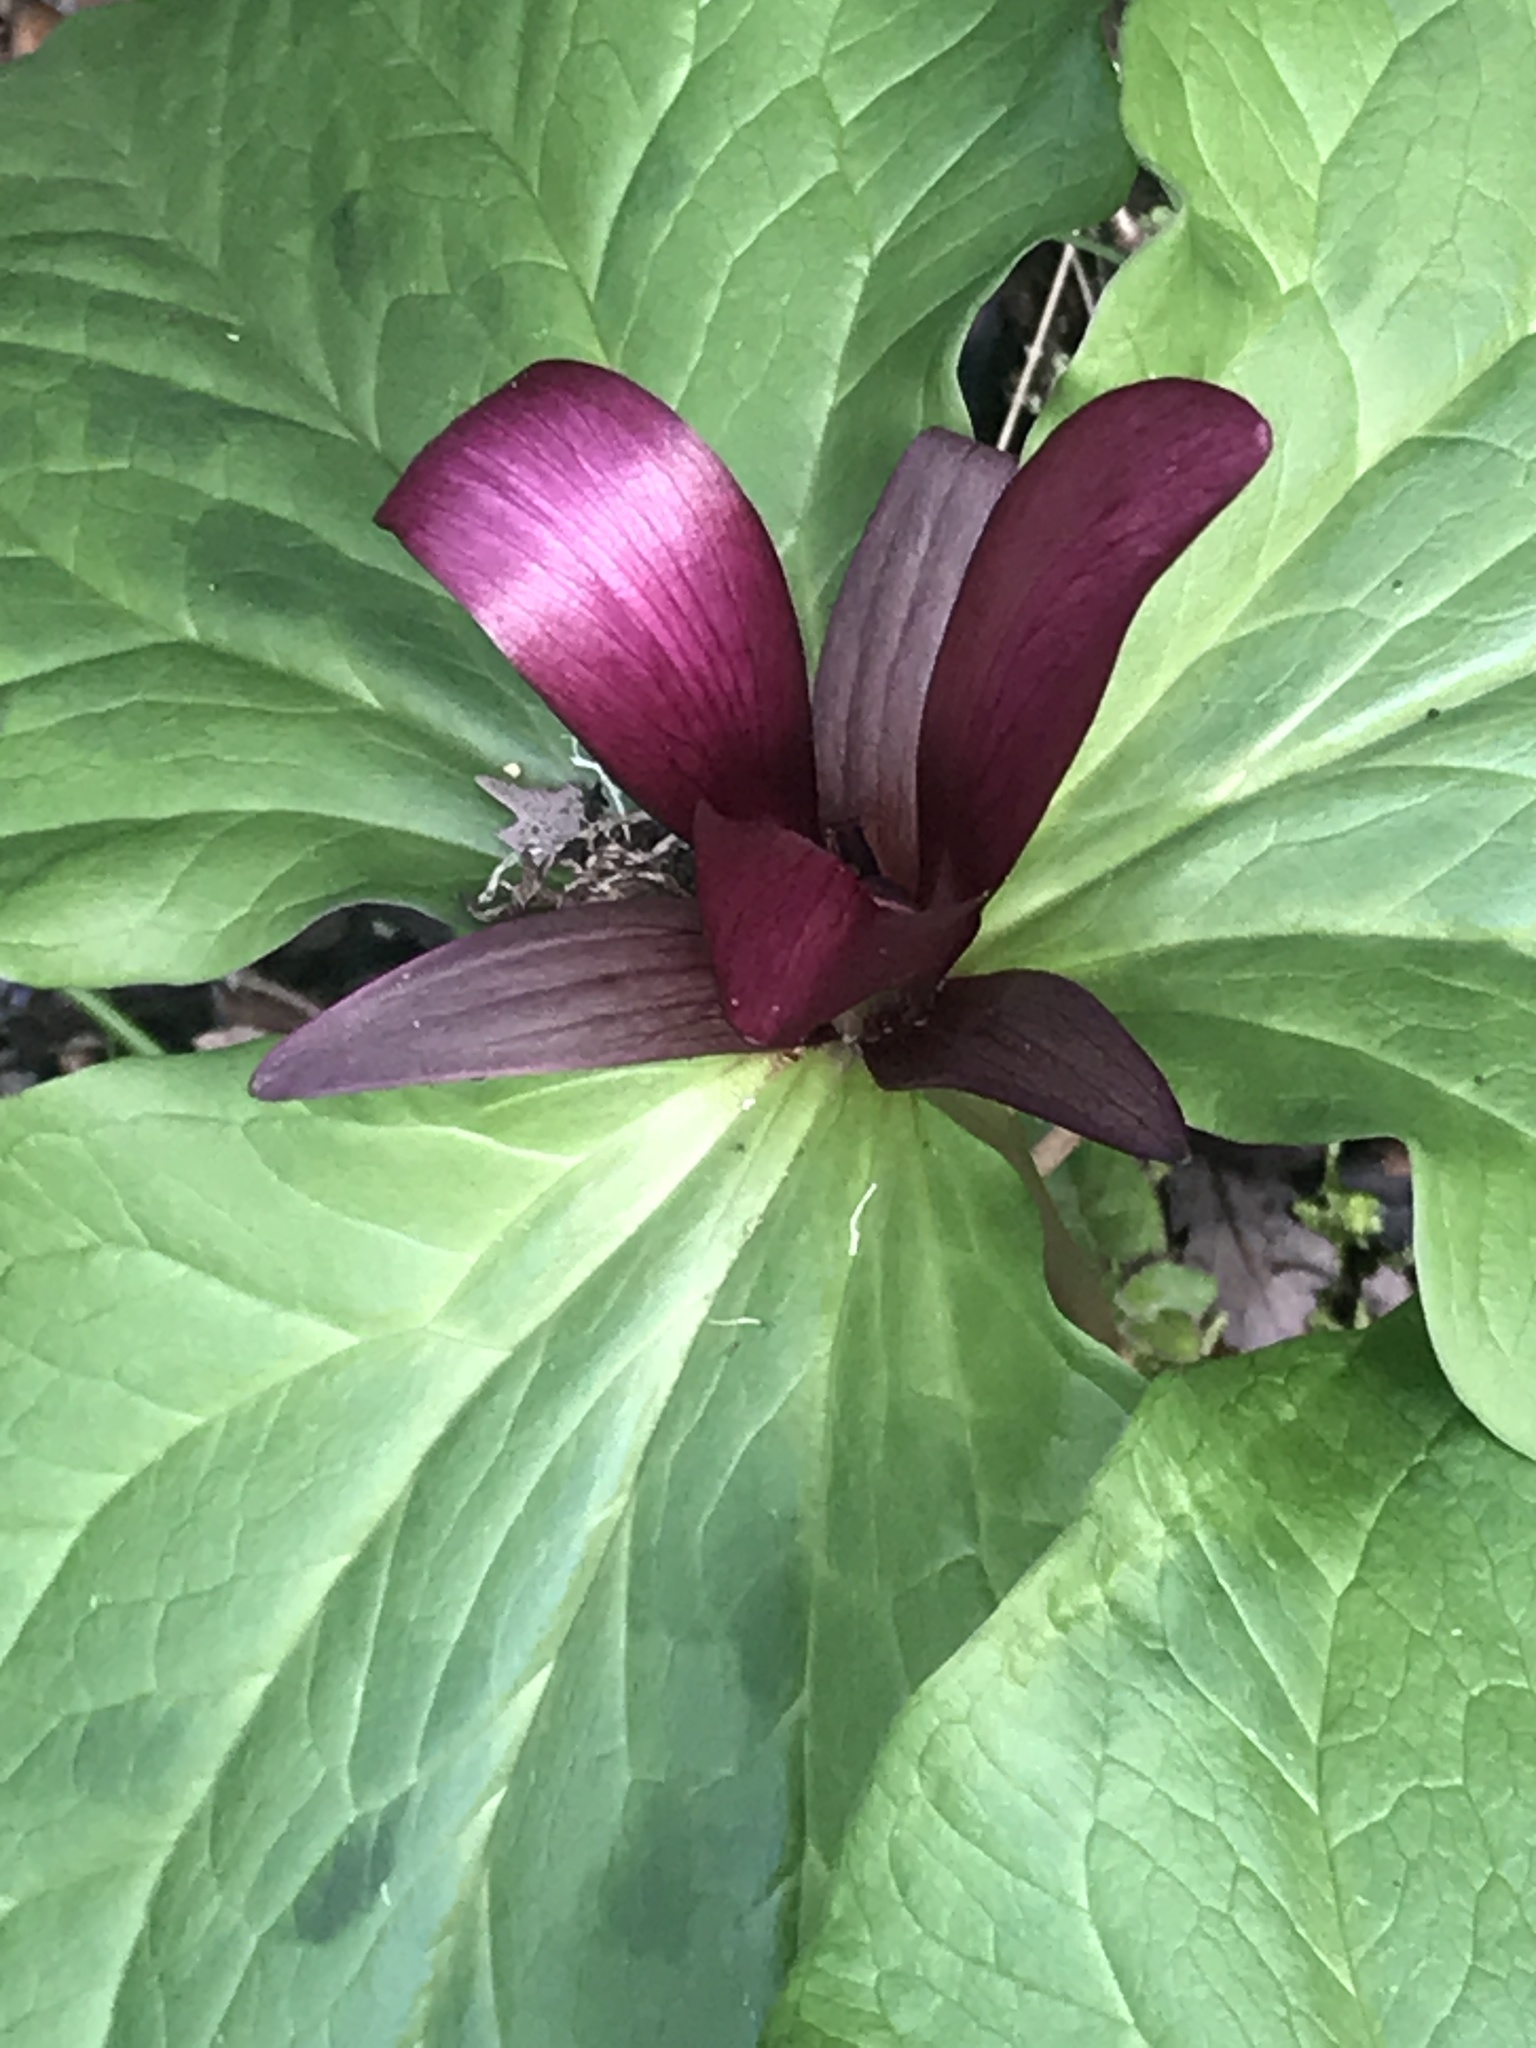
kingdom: Plantae
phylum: Tracheophyta
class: Liliopsida
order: Liliales
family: Melanthiaceae
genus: Trillium
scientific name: Trillium chloropetalum
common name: Giant trillium
